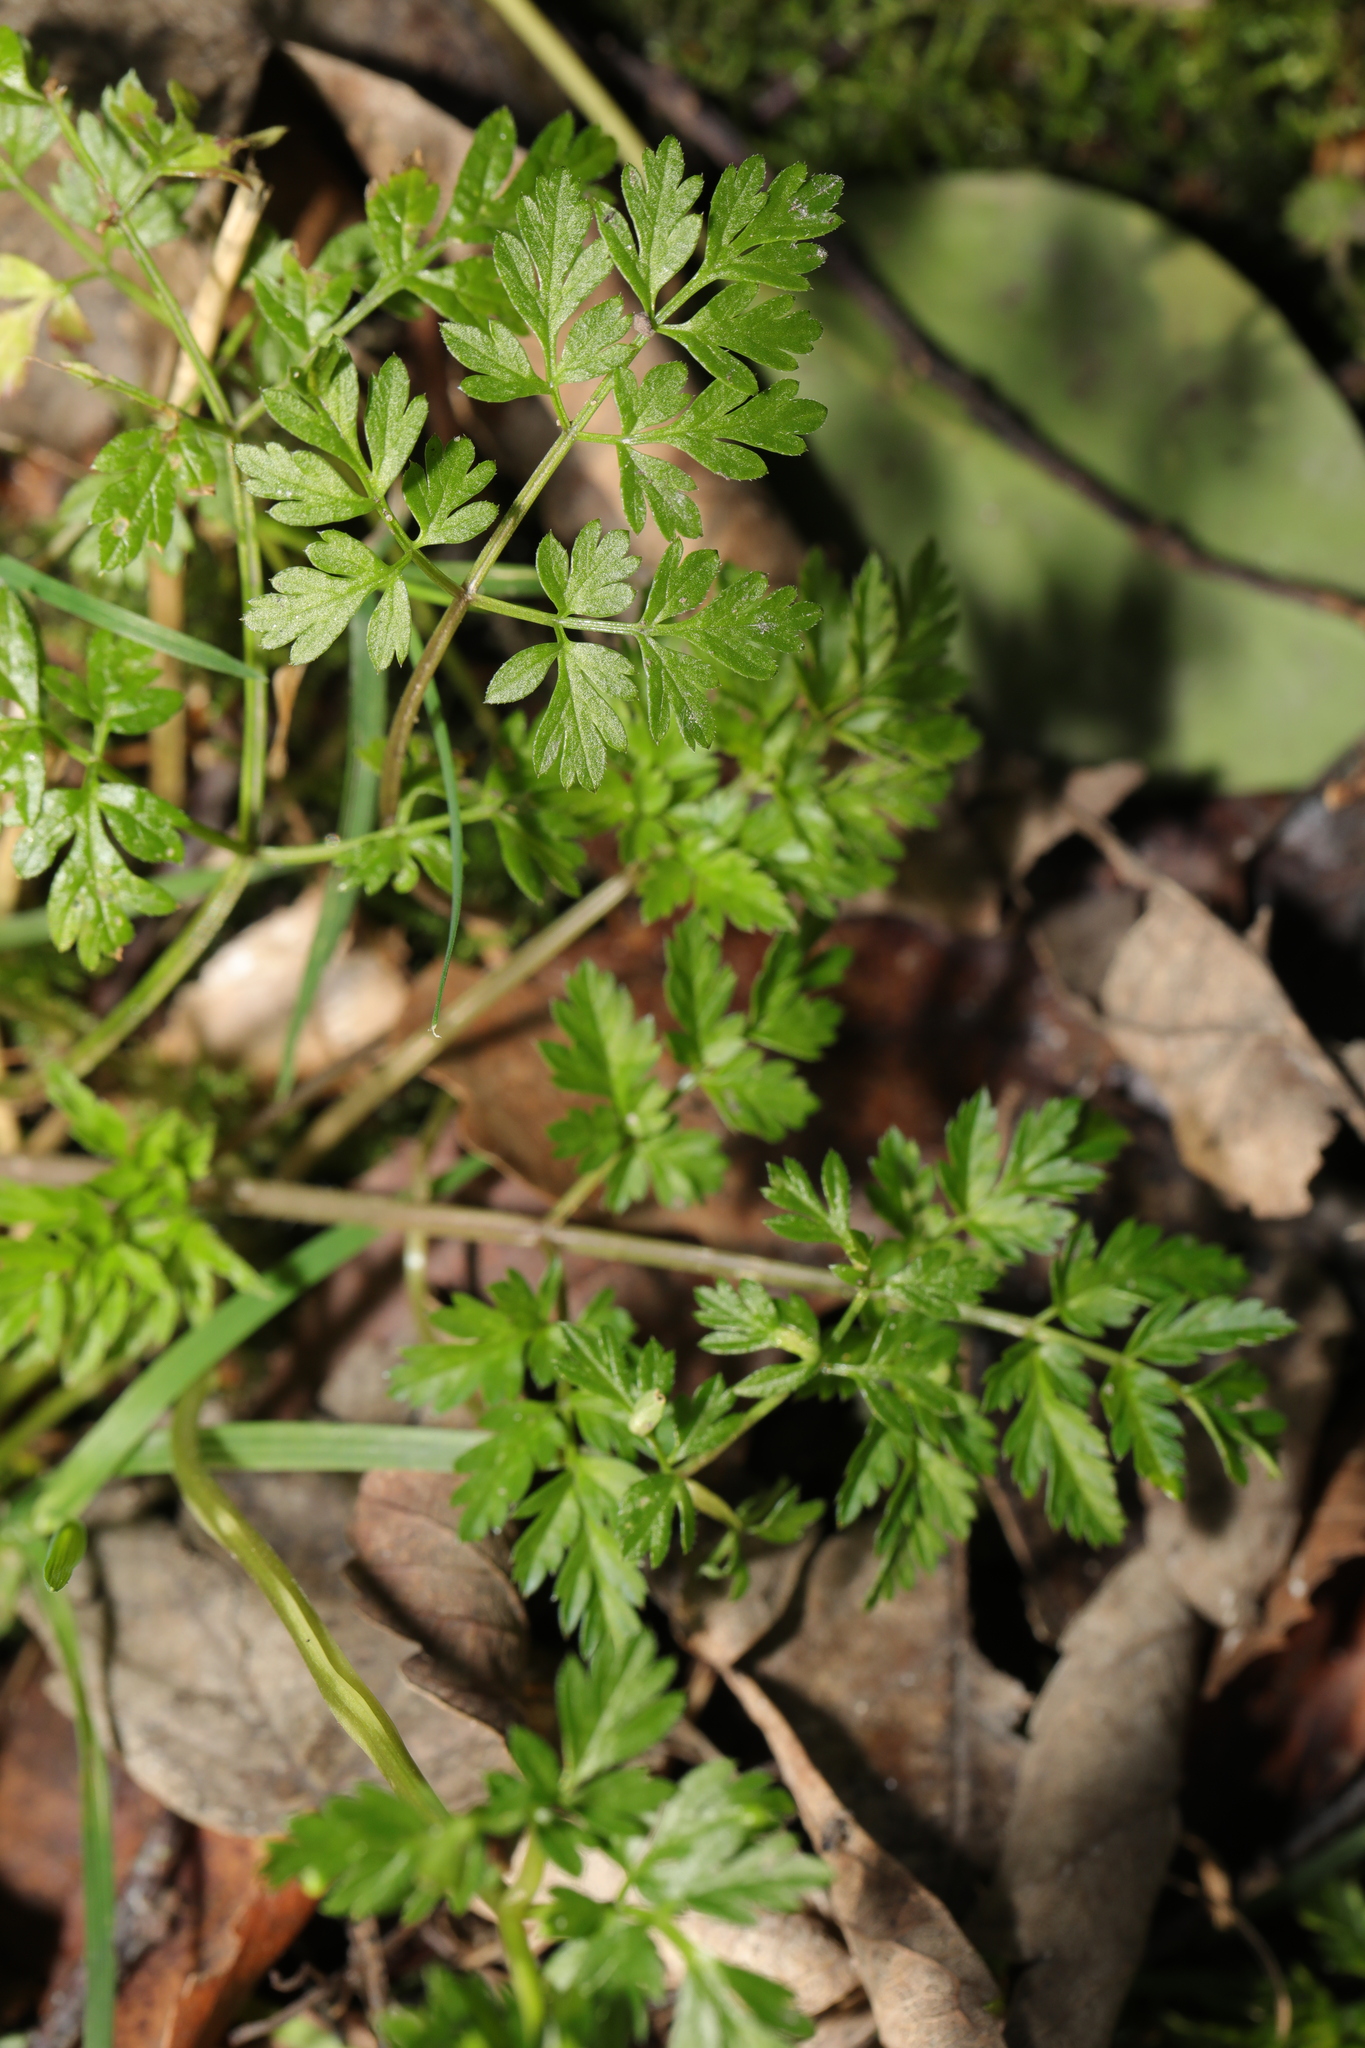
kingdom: Plantae
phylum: Tracheophyta
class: Magnoliopsida
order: Apiales
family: Apiaceae
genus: Anthriscus
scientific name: Anthriscus sylvestris
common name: Cow parsley
